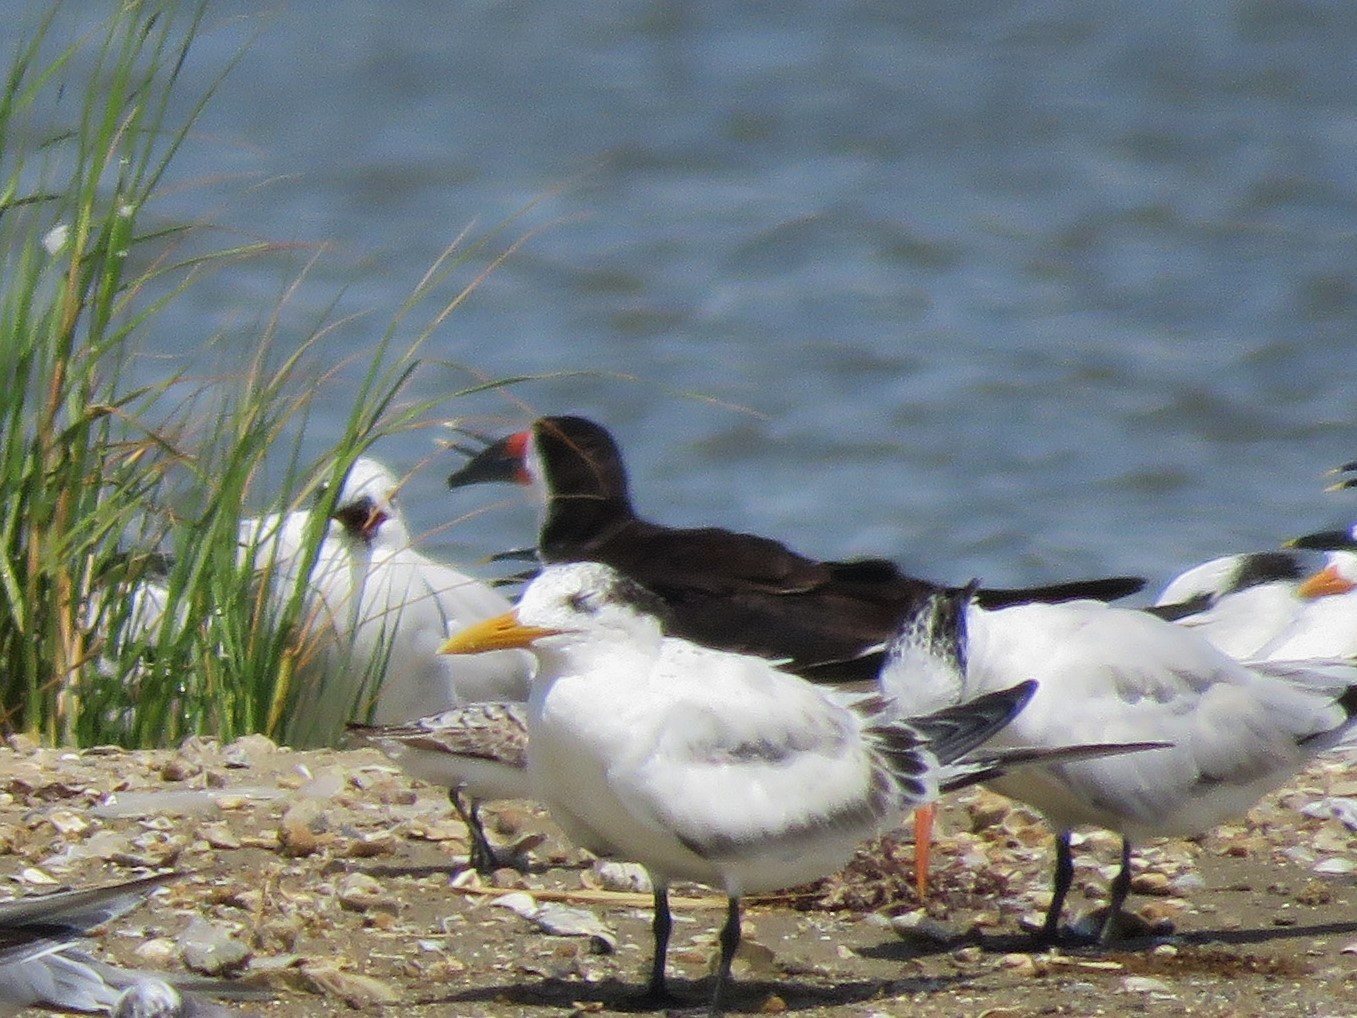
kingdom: Animalia
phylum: Chordata
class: Aves
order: Charadriiformes
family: Laridae
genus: Rynchops
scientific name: Rynchops niger
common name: Black skimmer
